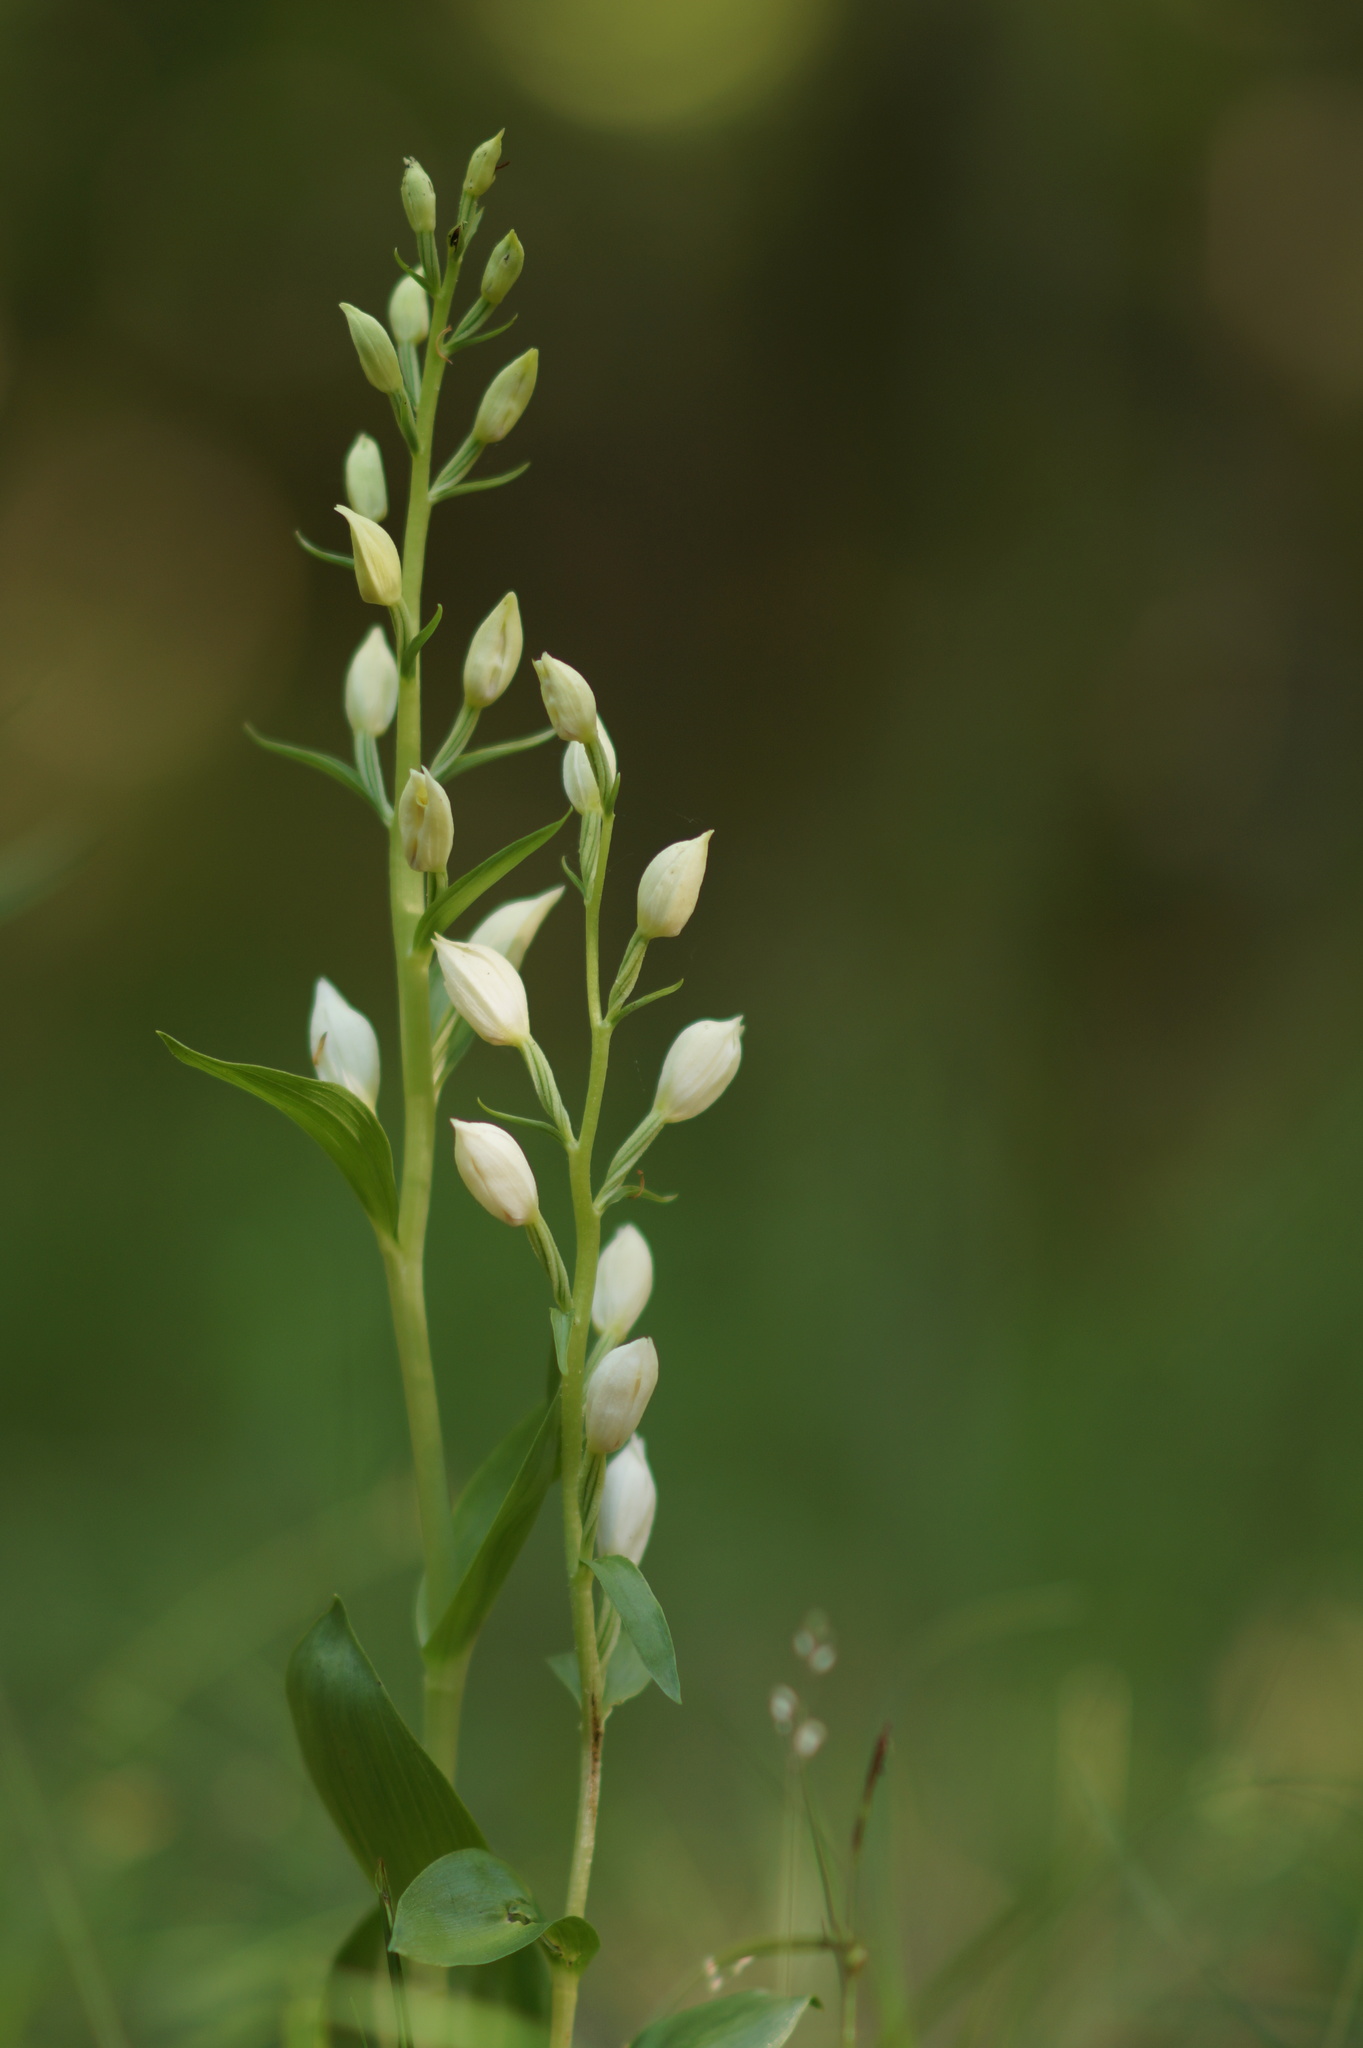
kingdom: Plantae
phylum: Tracheophyta
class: Liliopsida
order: Asparagales
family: Orchidaceae
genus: Cephalanthera
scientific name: Cephalanthera damasonium
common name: White helleborine
